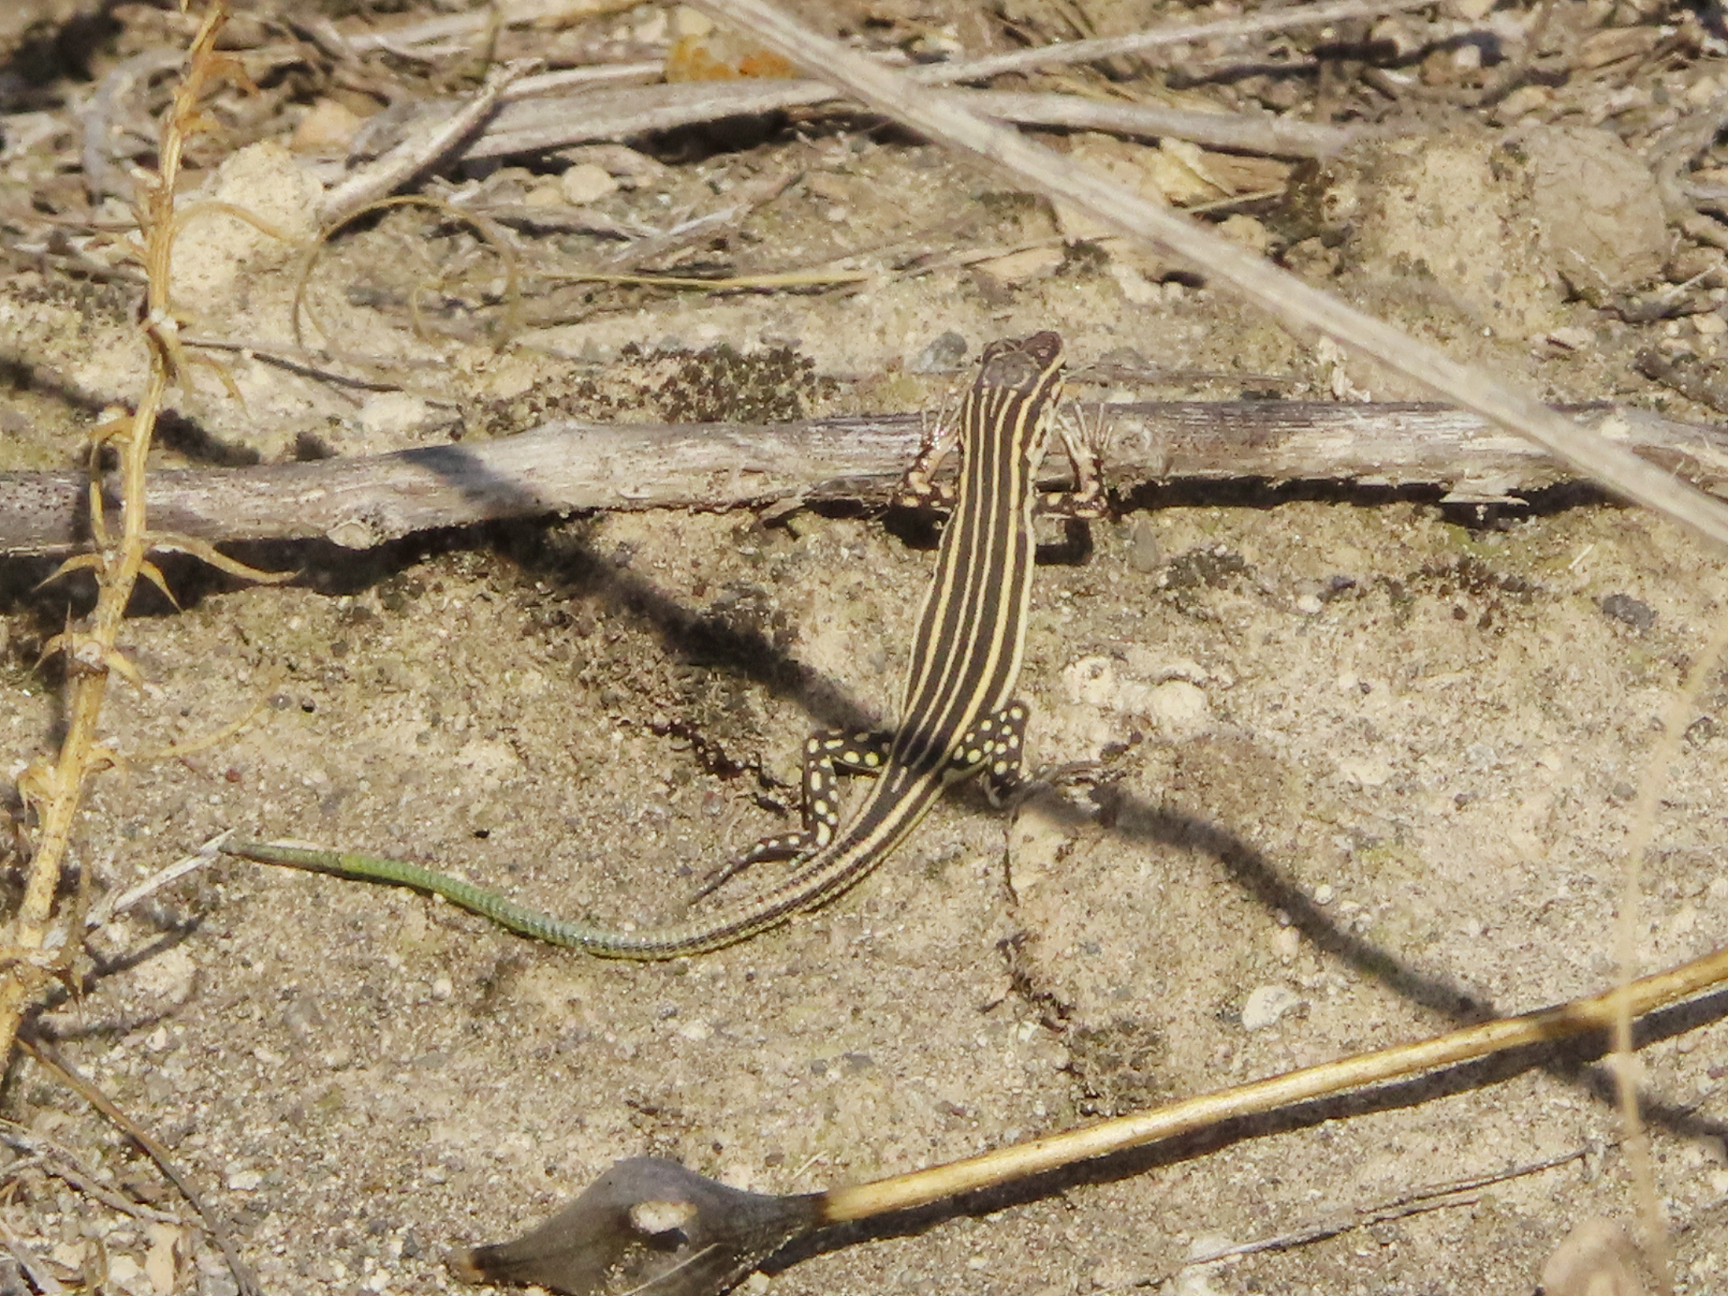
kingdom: Animalia
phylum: Chordata
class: Squamata
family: Lacertidae
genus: Eremias
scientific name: Eremias pleskei
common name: Pleske's racerunner
